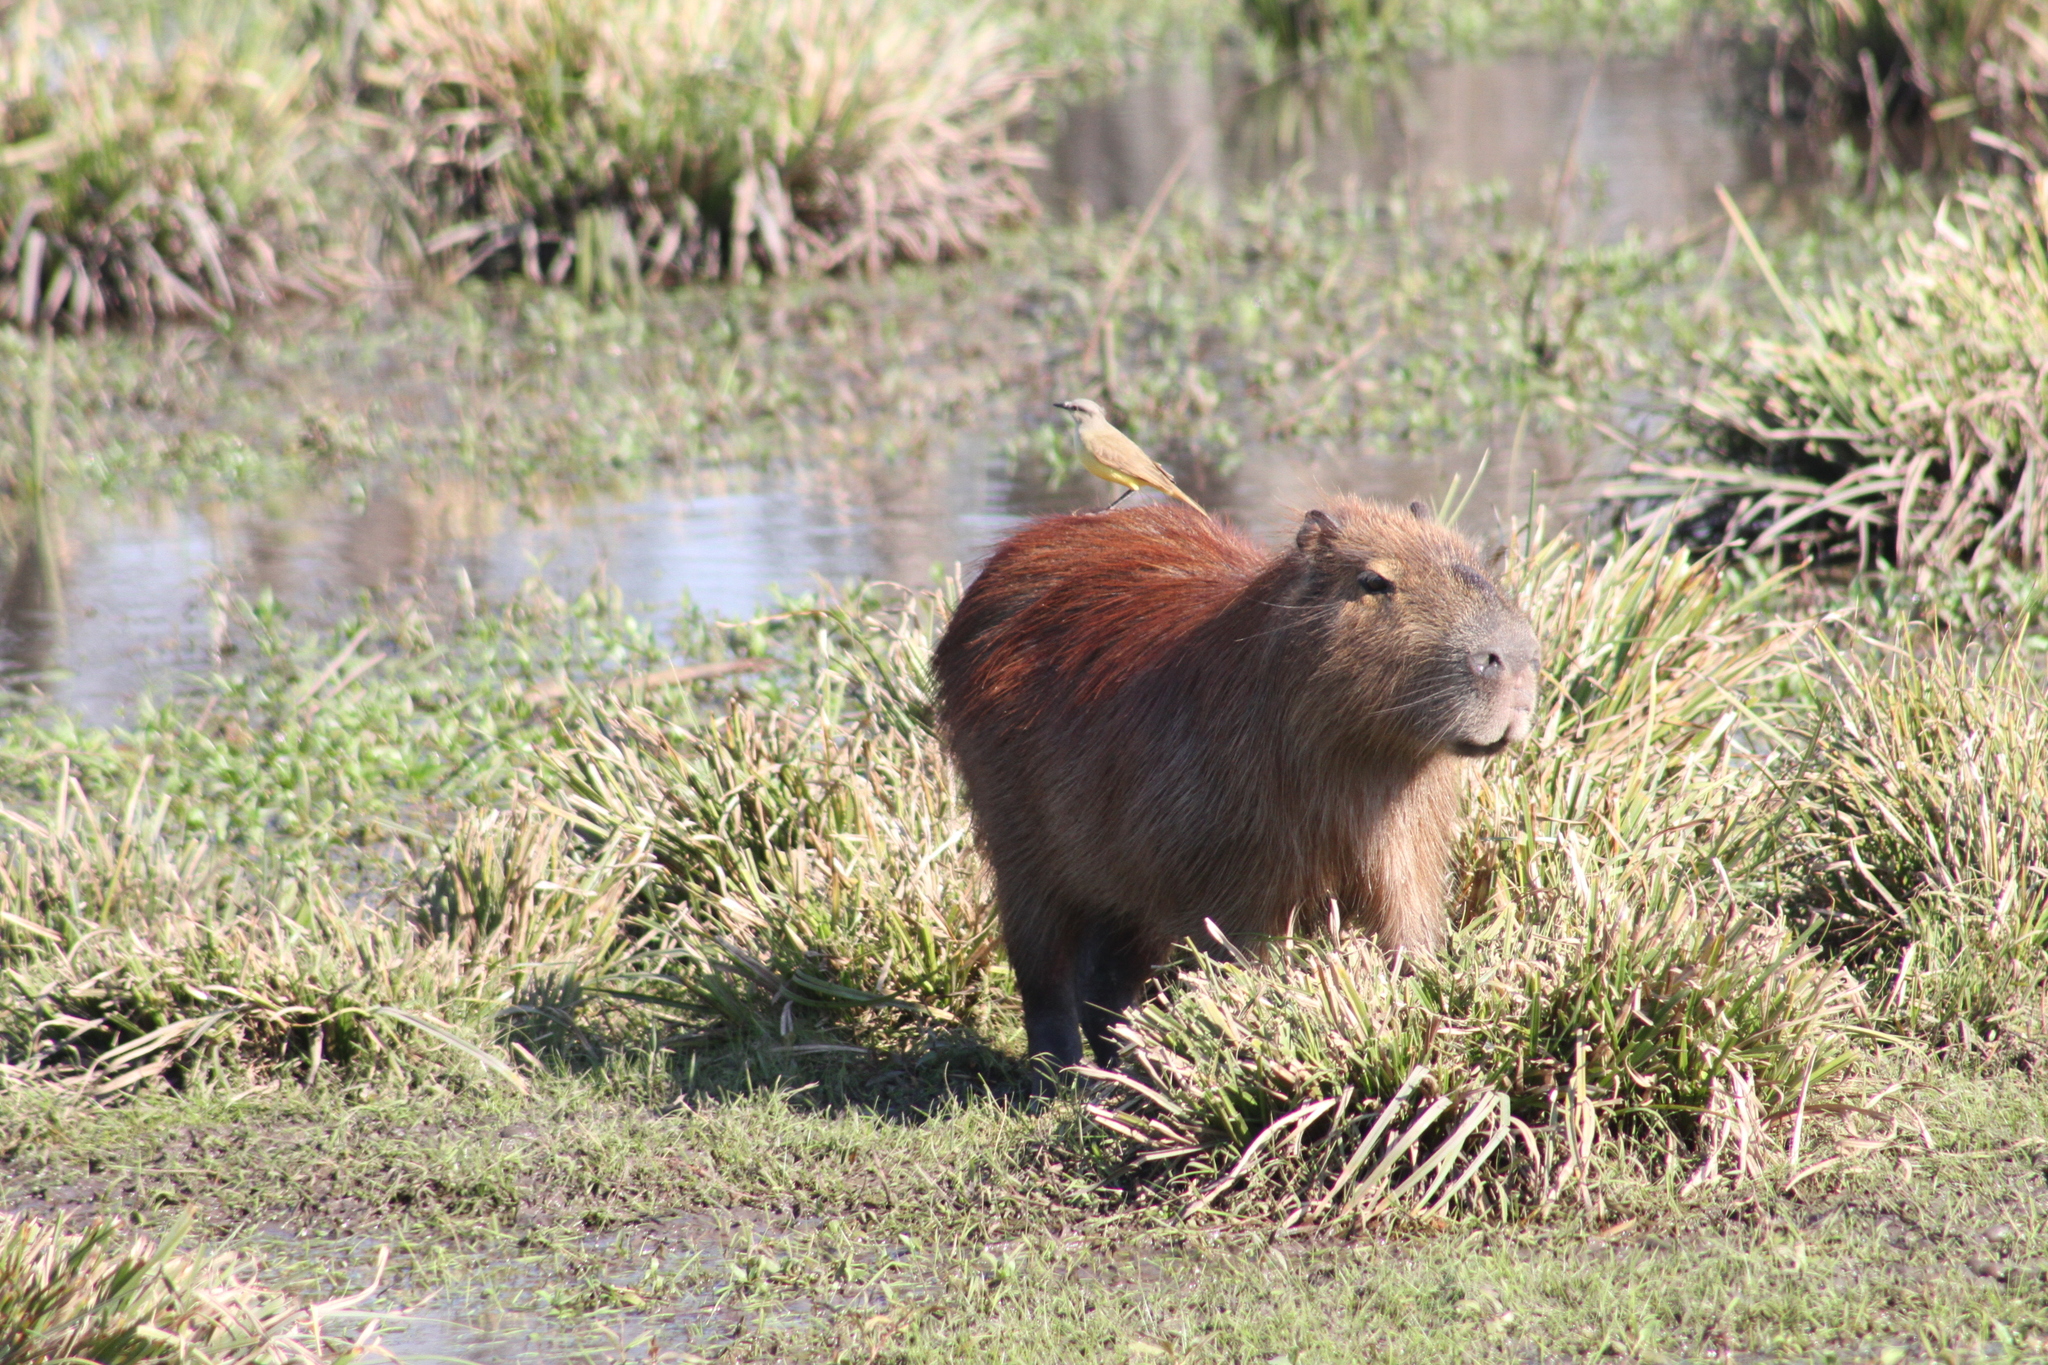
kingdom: Animalia
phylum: Chordata
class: Aves
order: Passeriformes
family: Tyrannidae
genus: Machetornis
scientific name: Machetornis rixosa
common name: Cattle tyrant
